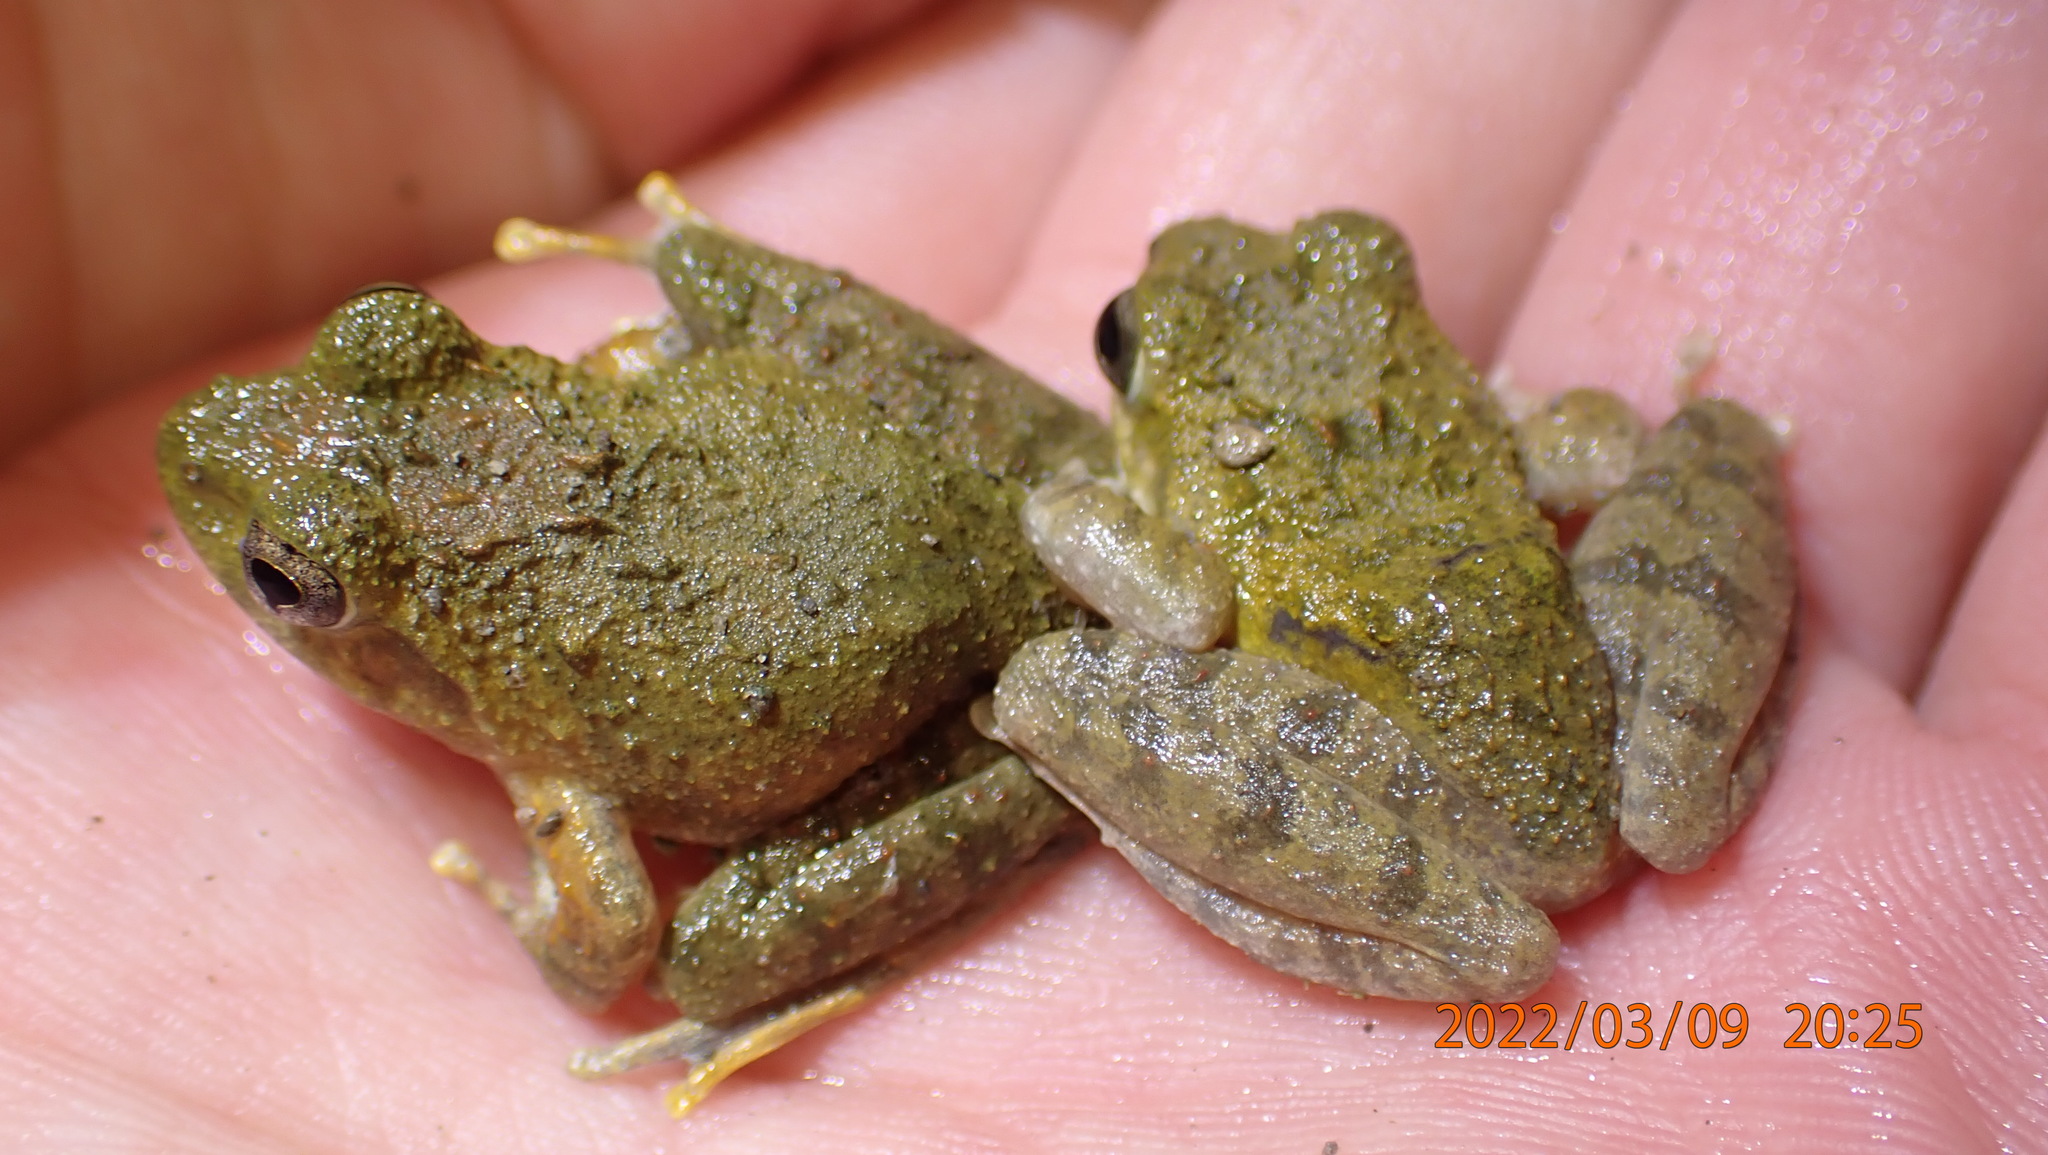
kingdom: Animalia
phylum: Chordata
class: Amphibia
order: Anura
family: Rhacophoridae
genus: Buergeria
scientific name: Buergeria otai
